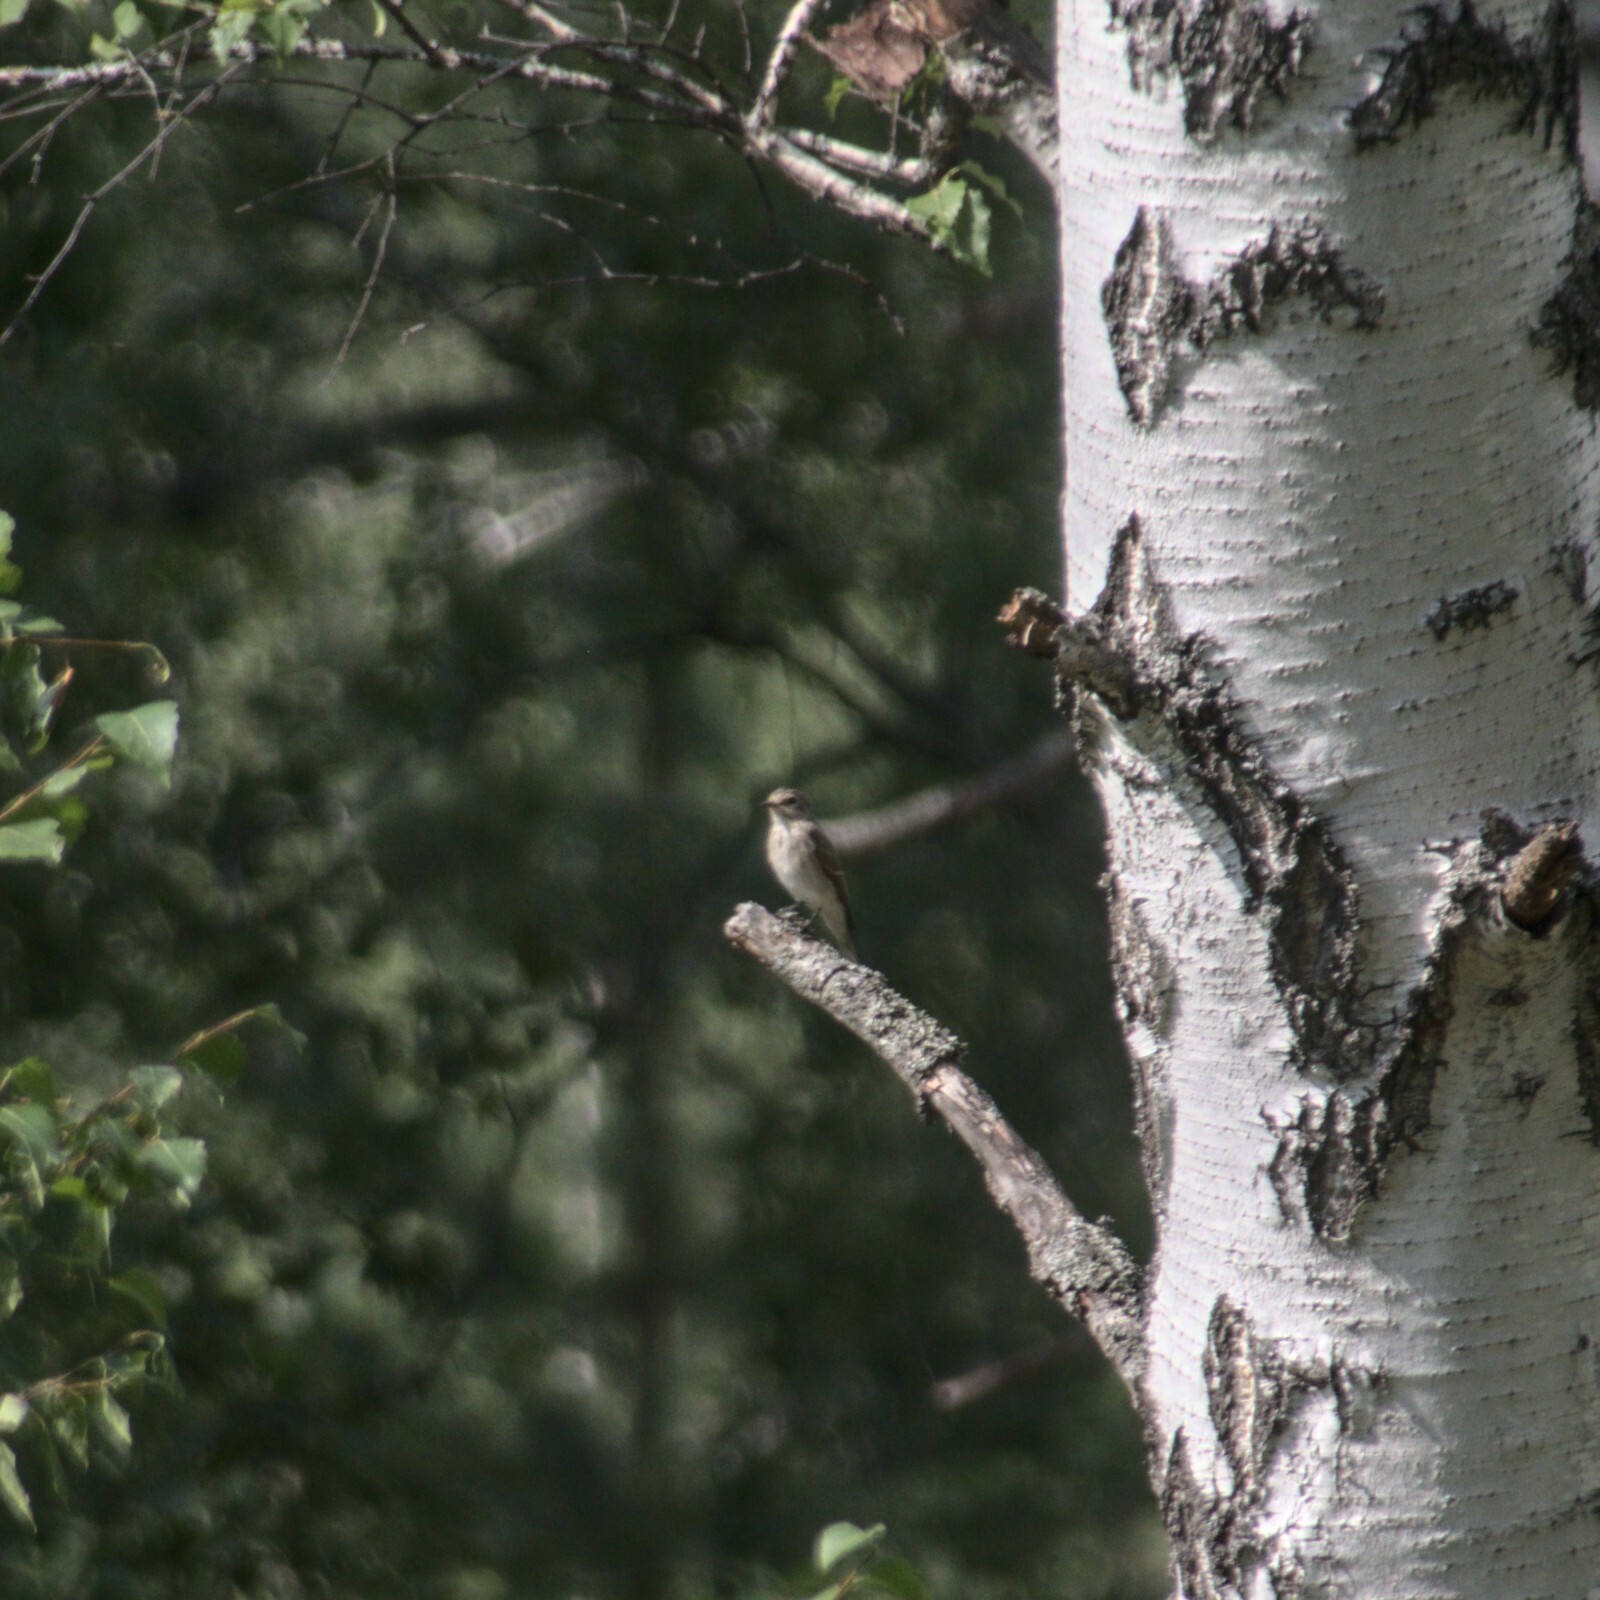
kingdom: Animalia
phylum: Chordata
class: Aves
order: Passeriformes
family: Muscicapidae
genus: Muscicapa
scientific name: Muscicapa striata
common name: Spotted flycatcher
